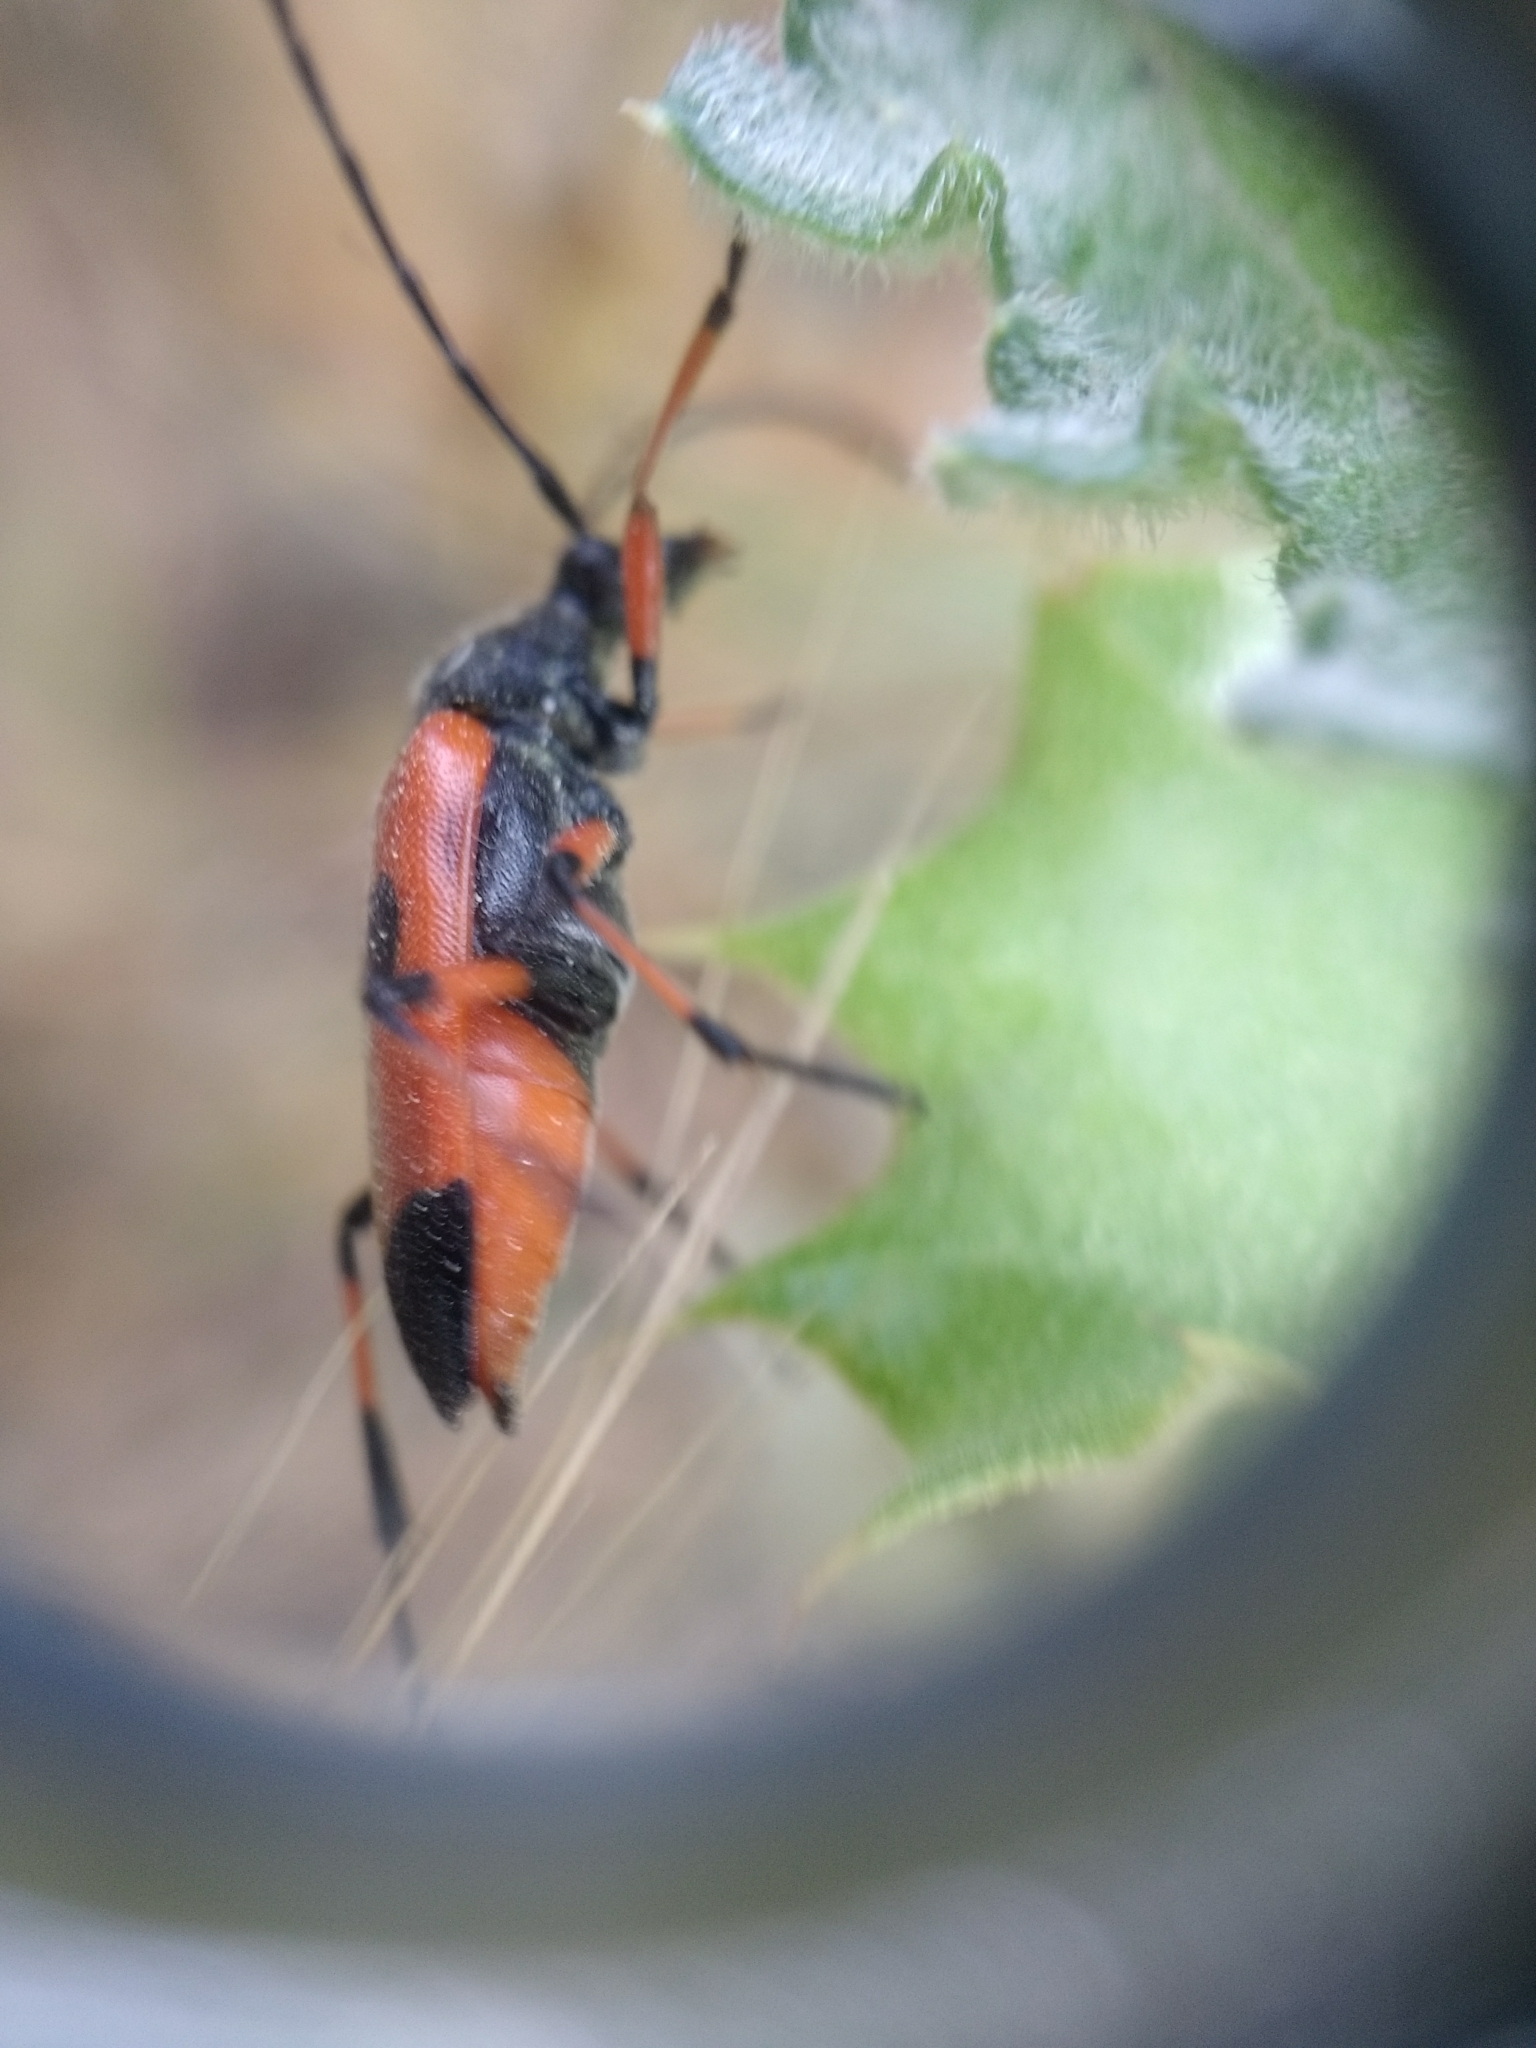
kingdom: Animalia
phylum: Arthropoda
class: Insecta
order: Coleoptera
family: Cerambycidae
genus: Nustera
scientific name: Nustera distigma
